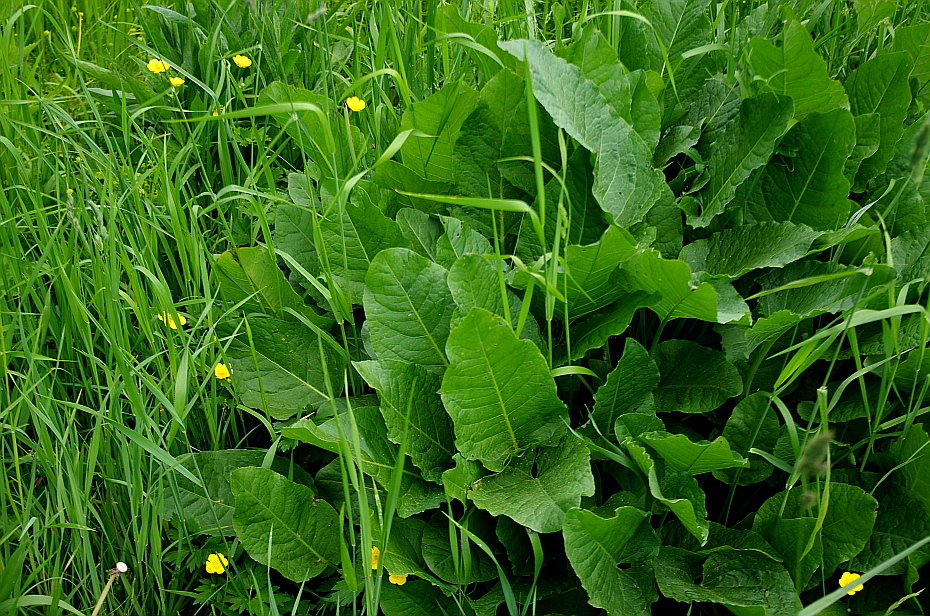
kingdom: Plantae
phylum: Tracheophyta
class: Magnoliopsida
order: Caryophyllales
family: Polygonaceae
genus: Rumex
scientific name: Rumex obtusifolius
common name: Bitter dock
